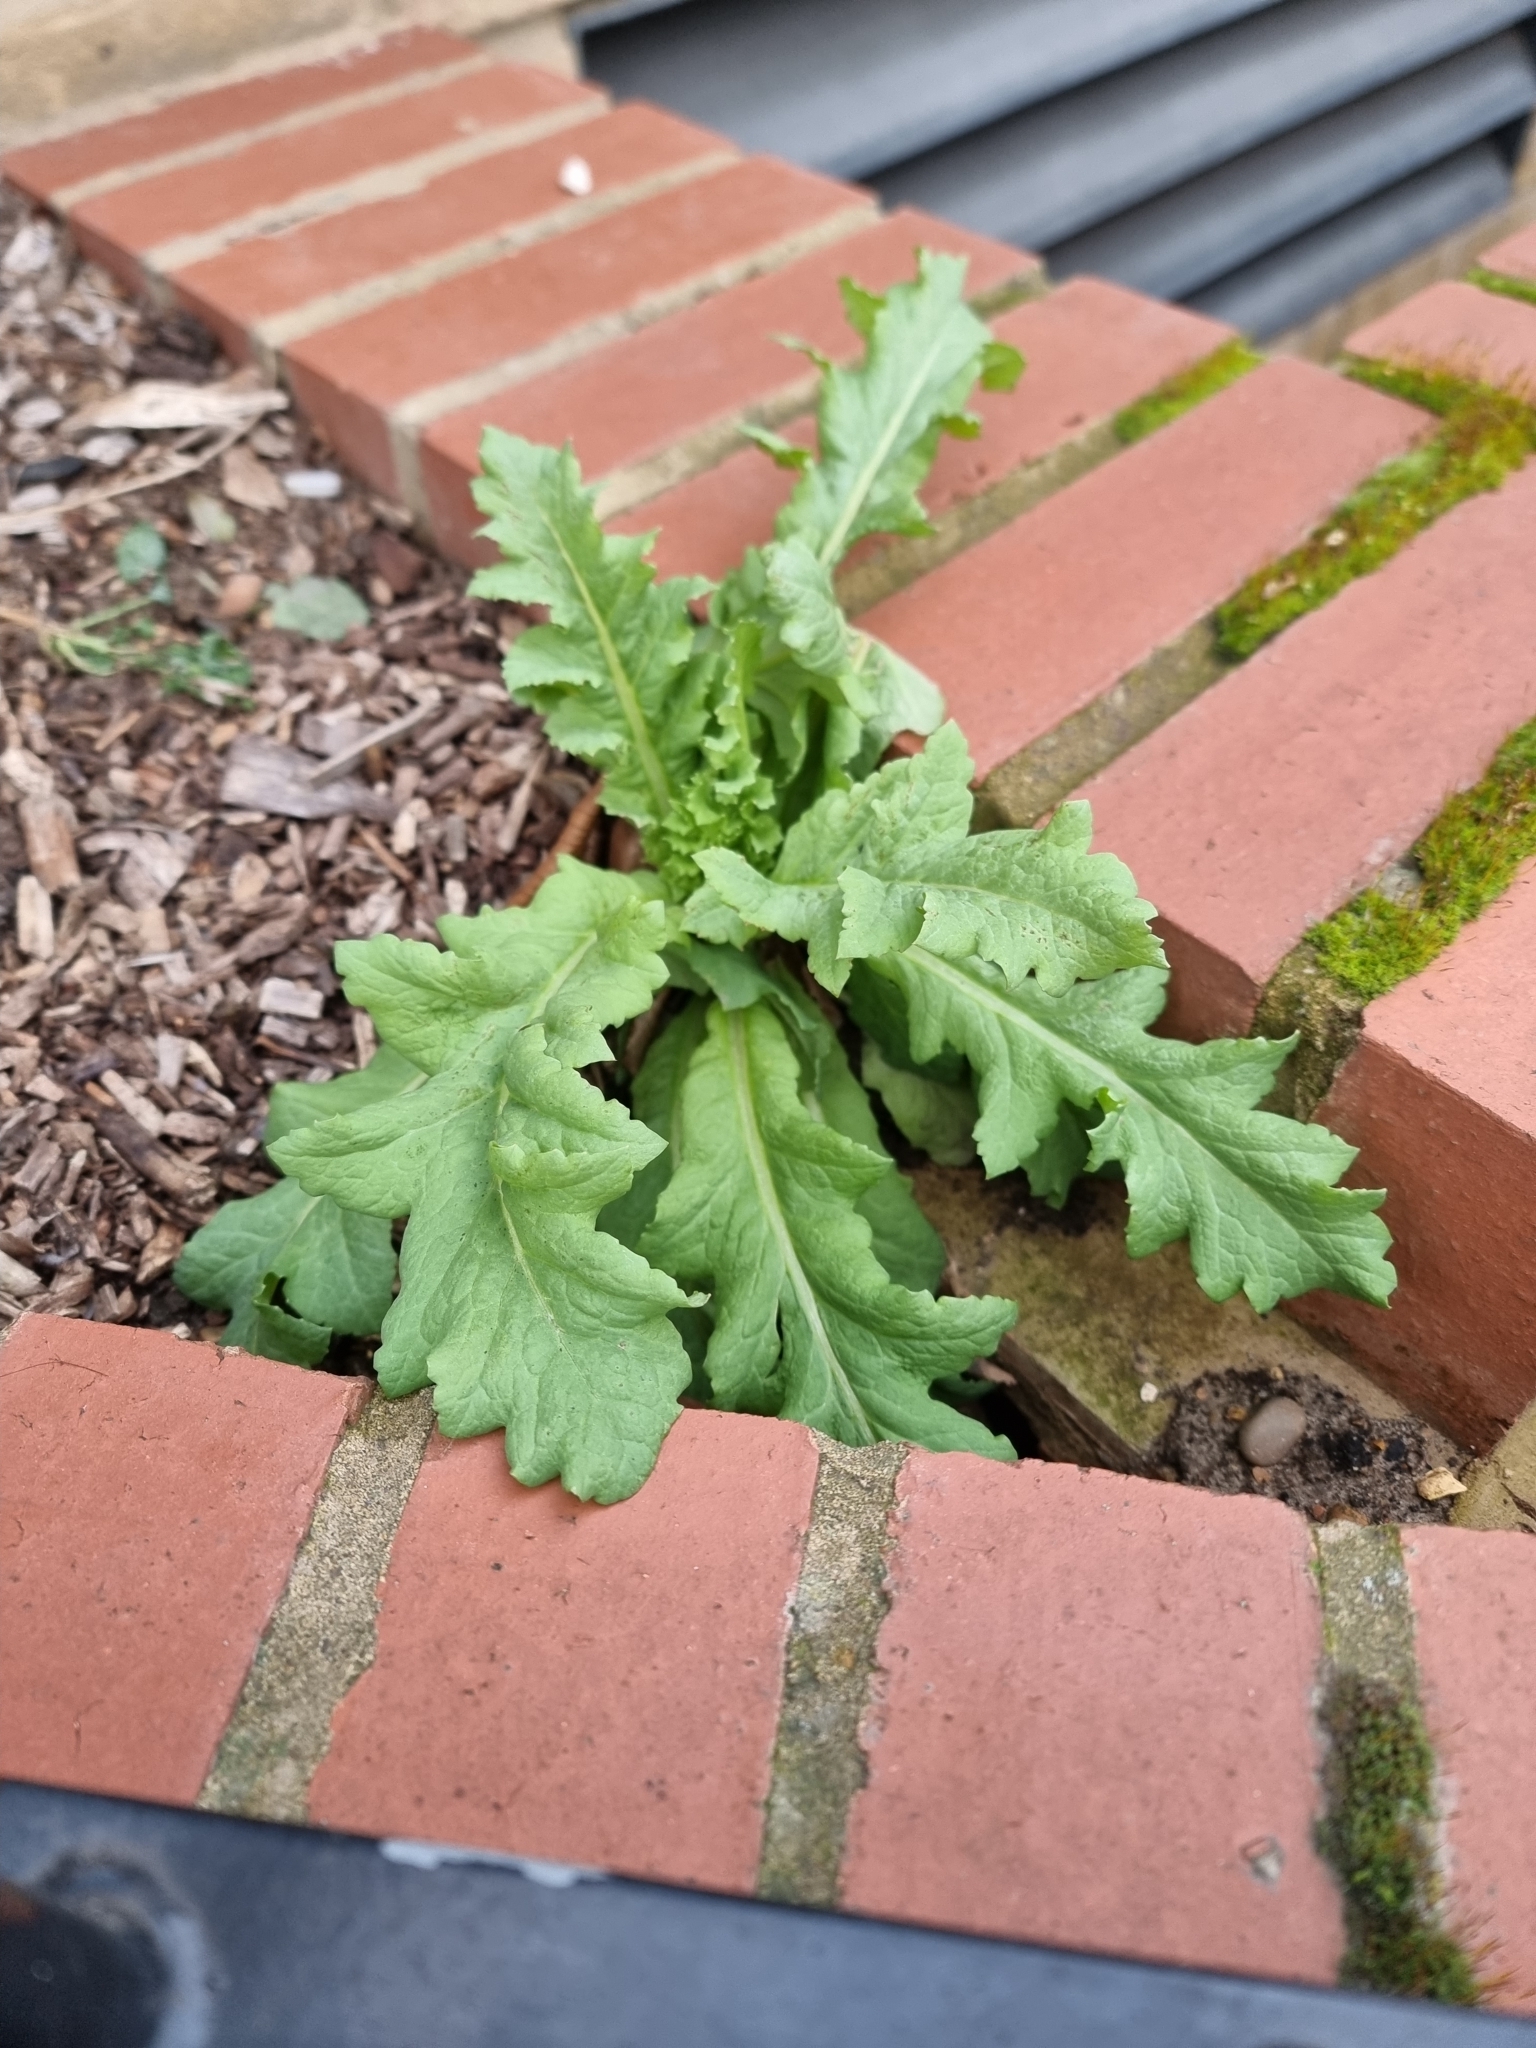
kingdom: Plantae
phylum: Tracheophyta
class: Magnoliopsida
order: Ranunculales
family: Papaveraceae
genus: Papaver
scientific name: Papaver somniferum
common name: Opium poppy
